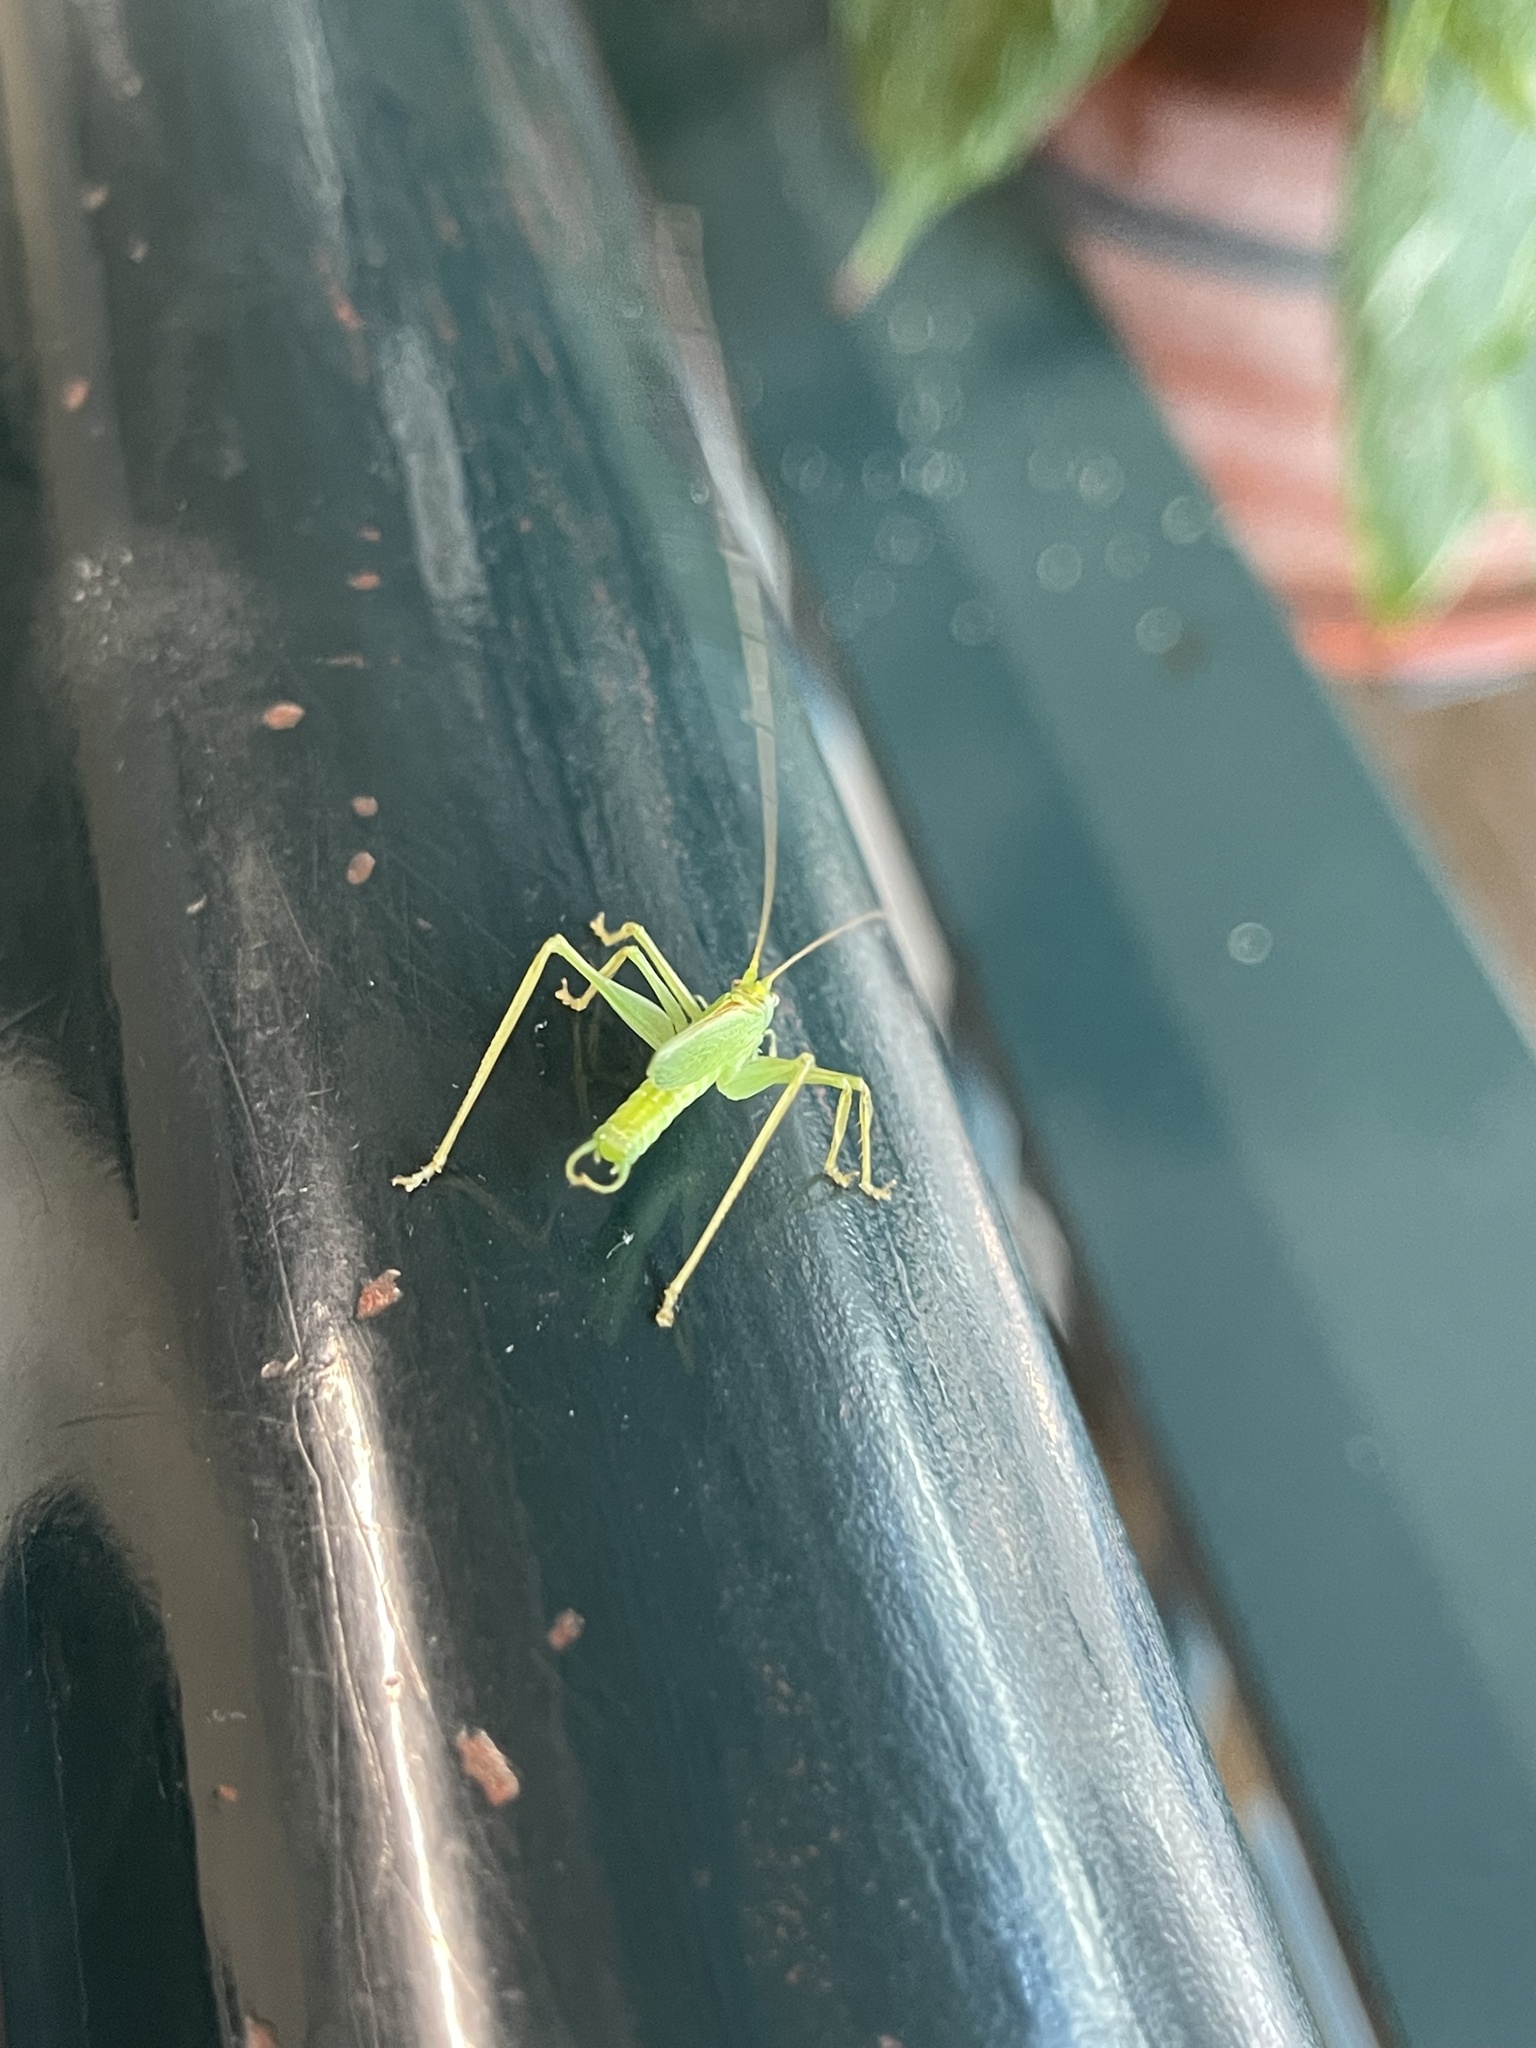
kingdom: Animalia
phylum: Arthropoda
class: Insecta
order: Orthoptera
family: Tettigoniidae
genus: Meconema
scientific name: Meconema thalassinum
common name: Oak bush-cricket
